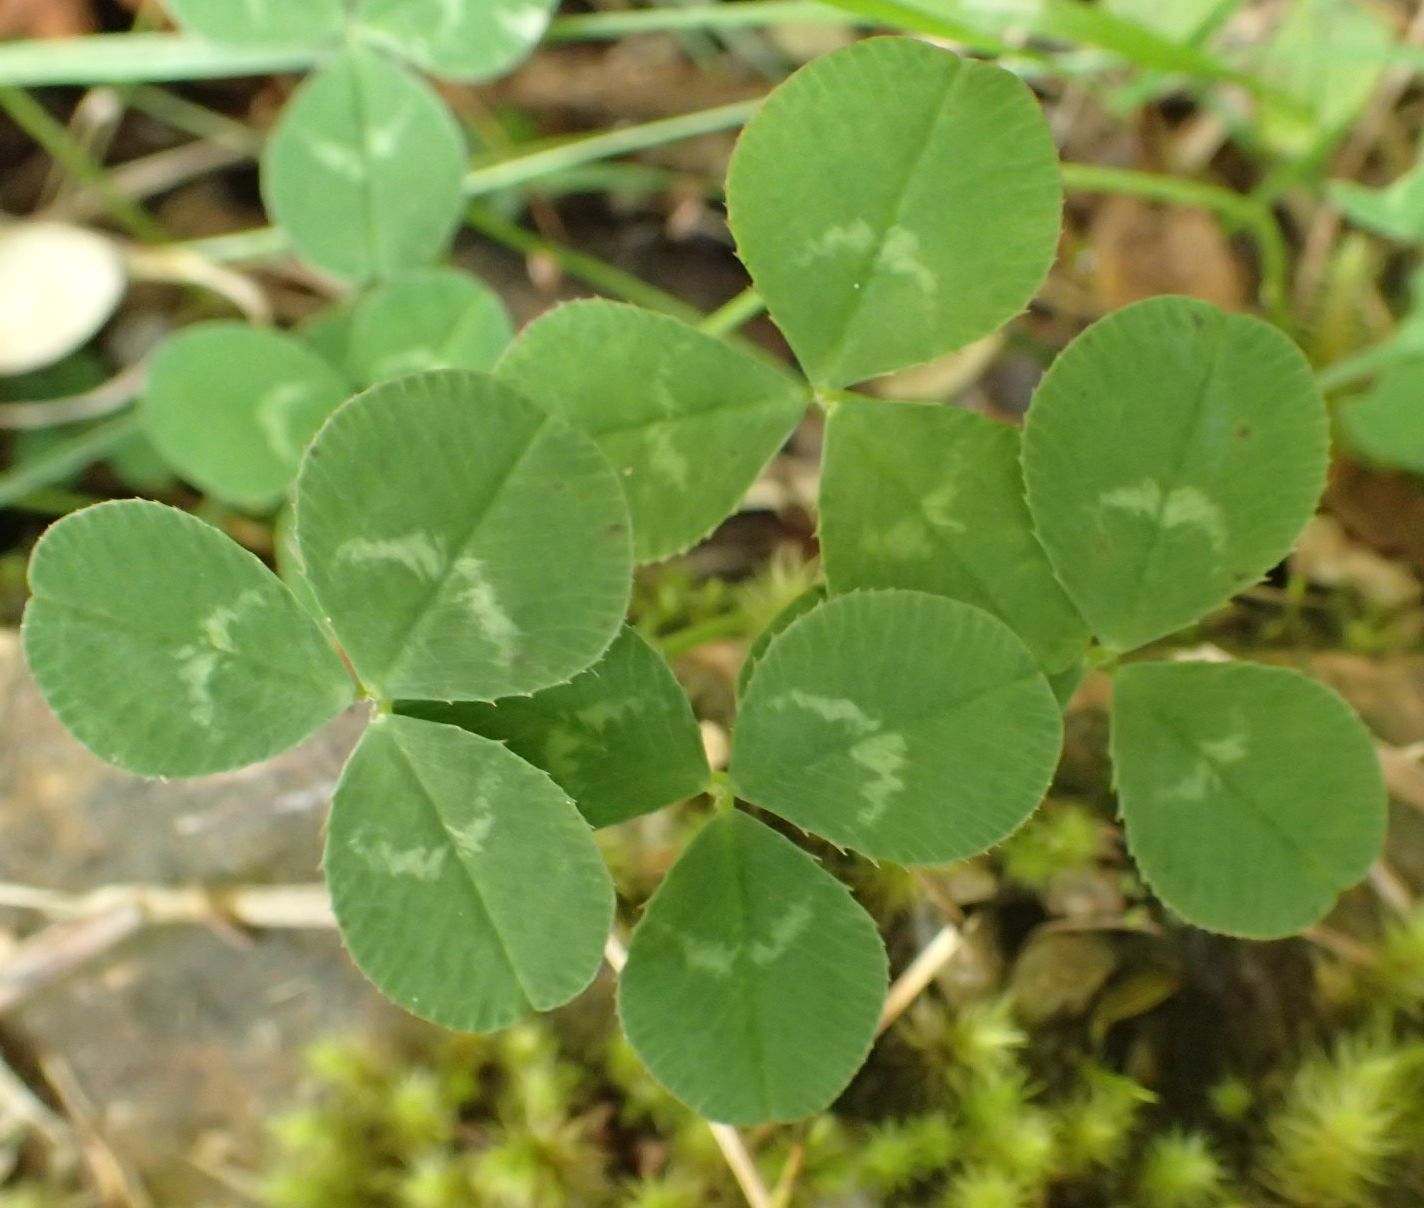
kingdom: Plantae
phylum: Tracheophyta
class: Magnoliopsida
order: Fabales
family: Fabaceae
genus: Trifolium
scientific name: Trifolium repens
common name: White clover
